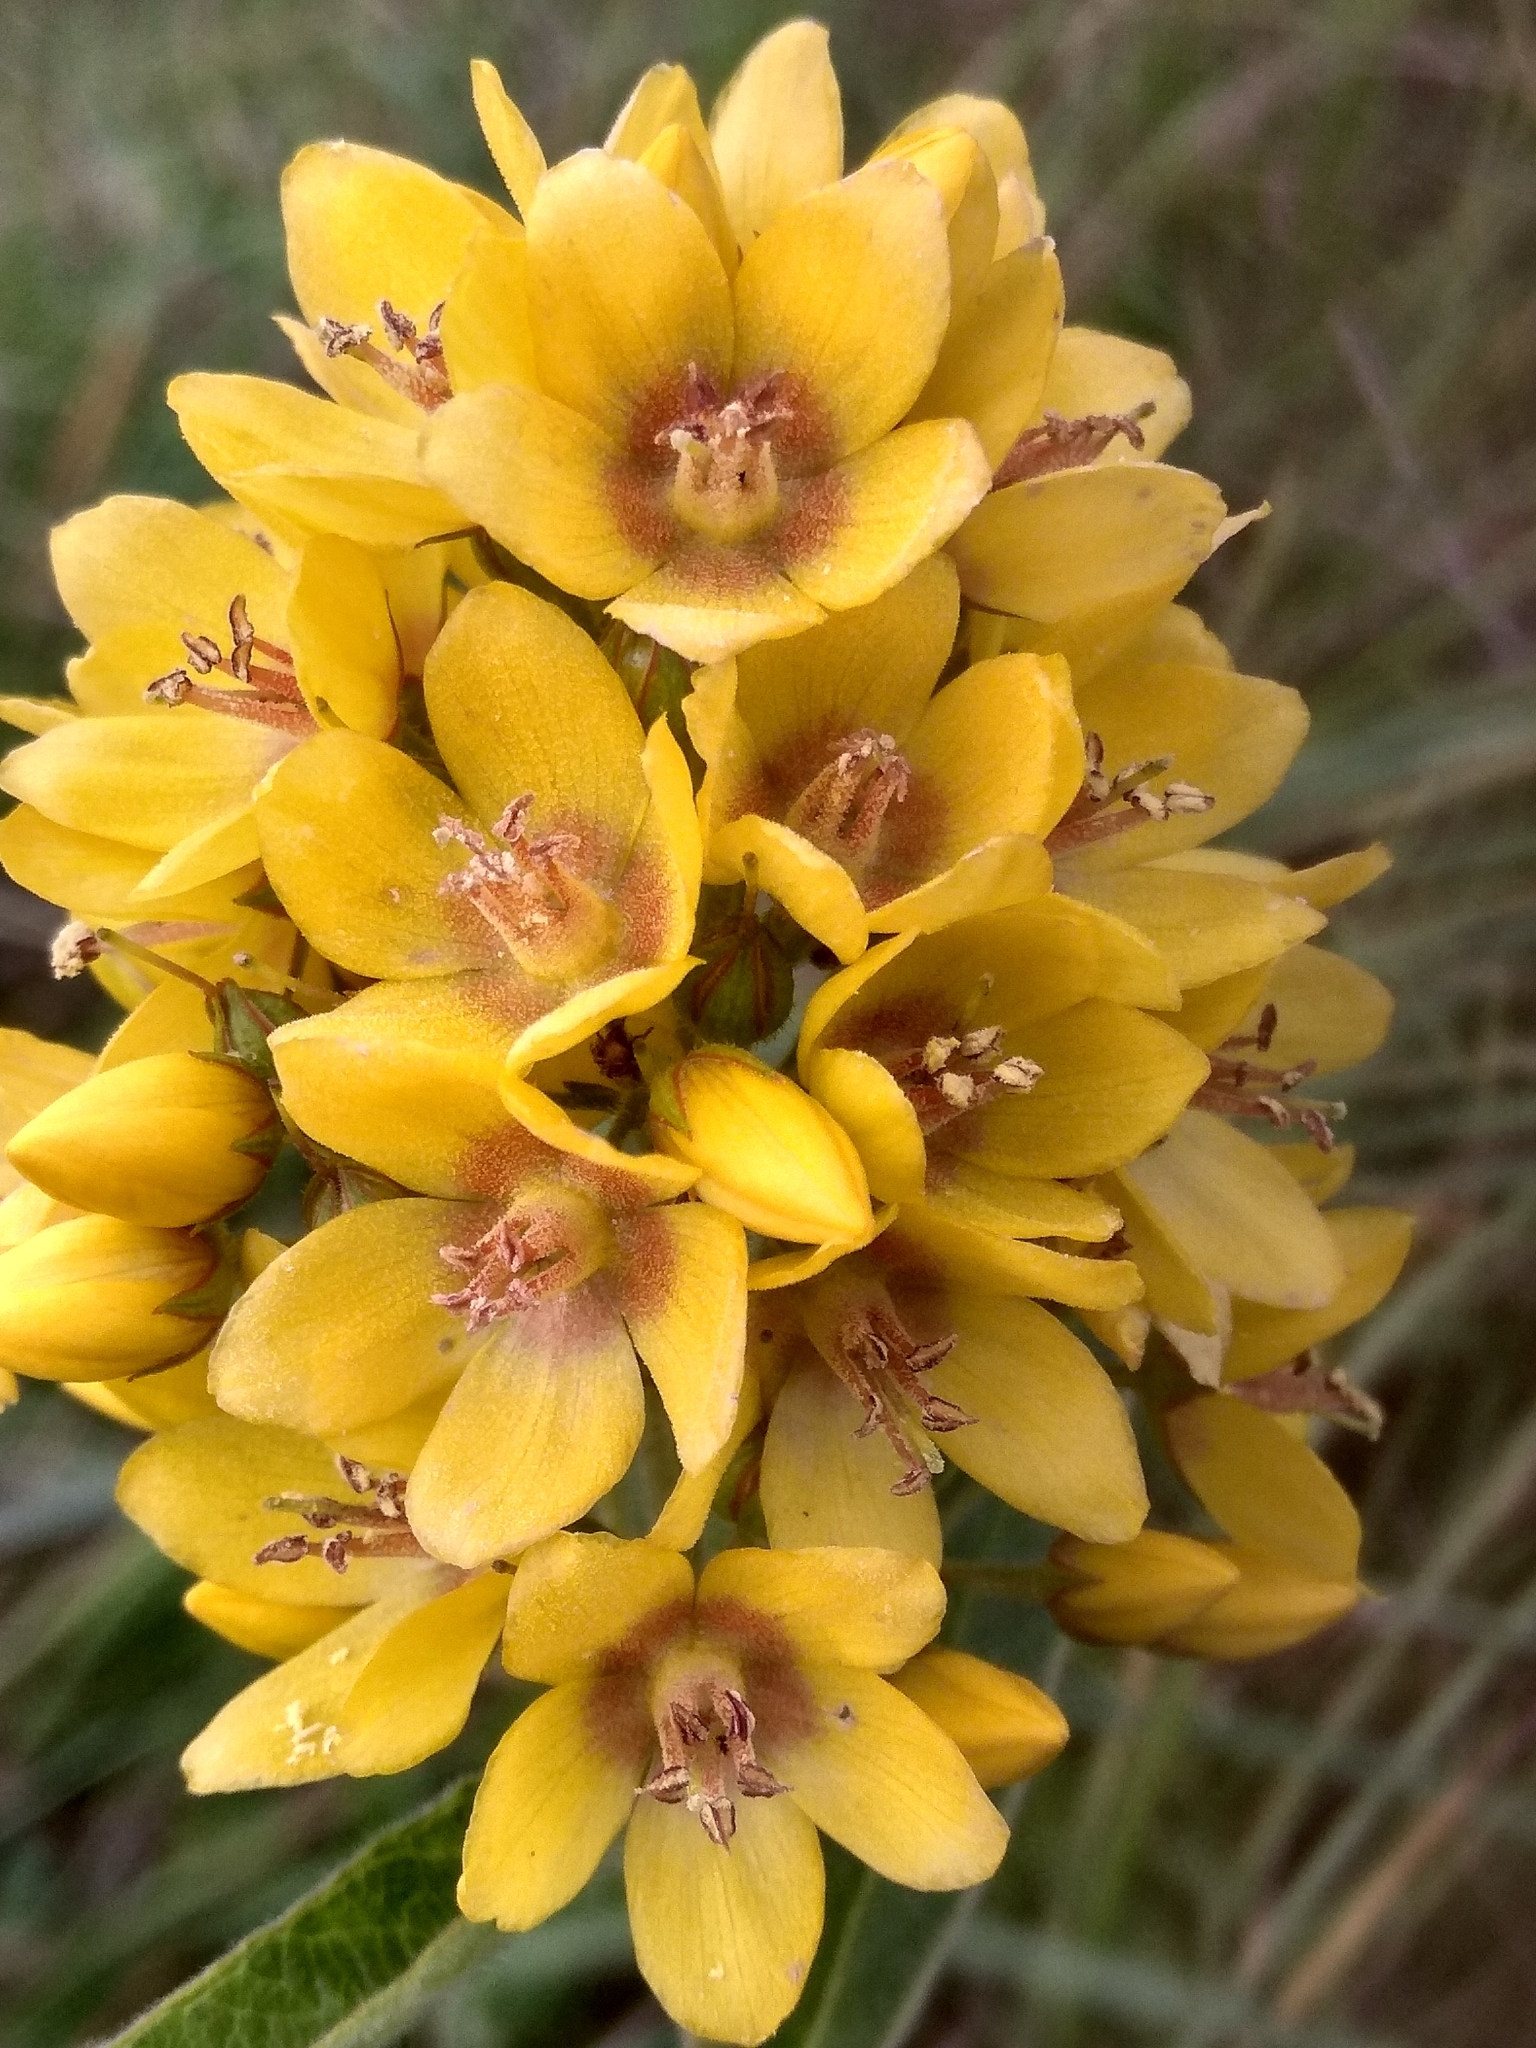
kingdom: Plantae
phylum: Tracheophyta
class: Magnoliopsida
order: Ericales
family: Primulaceae
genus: Lysimachia
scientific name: Lysimachia vulgaris
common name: Yellow loosestrife
